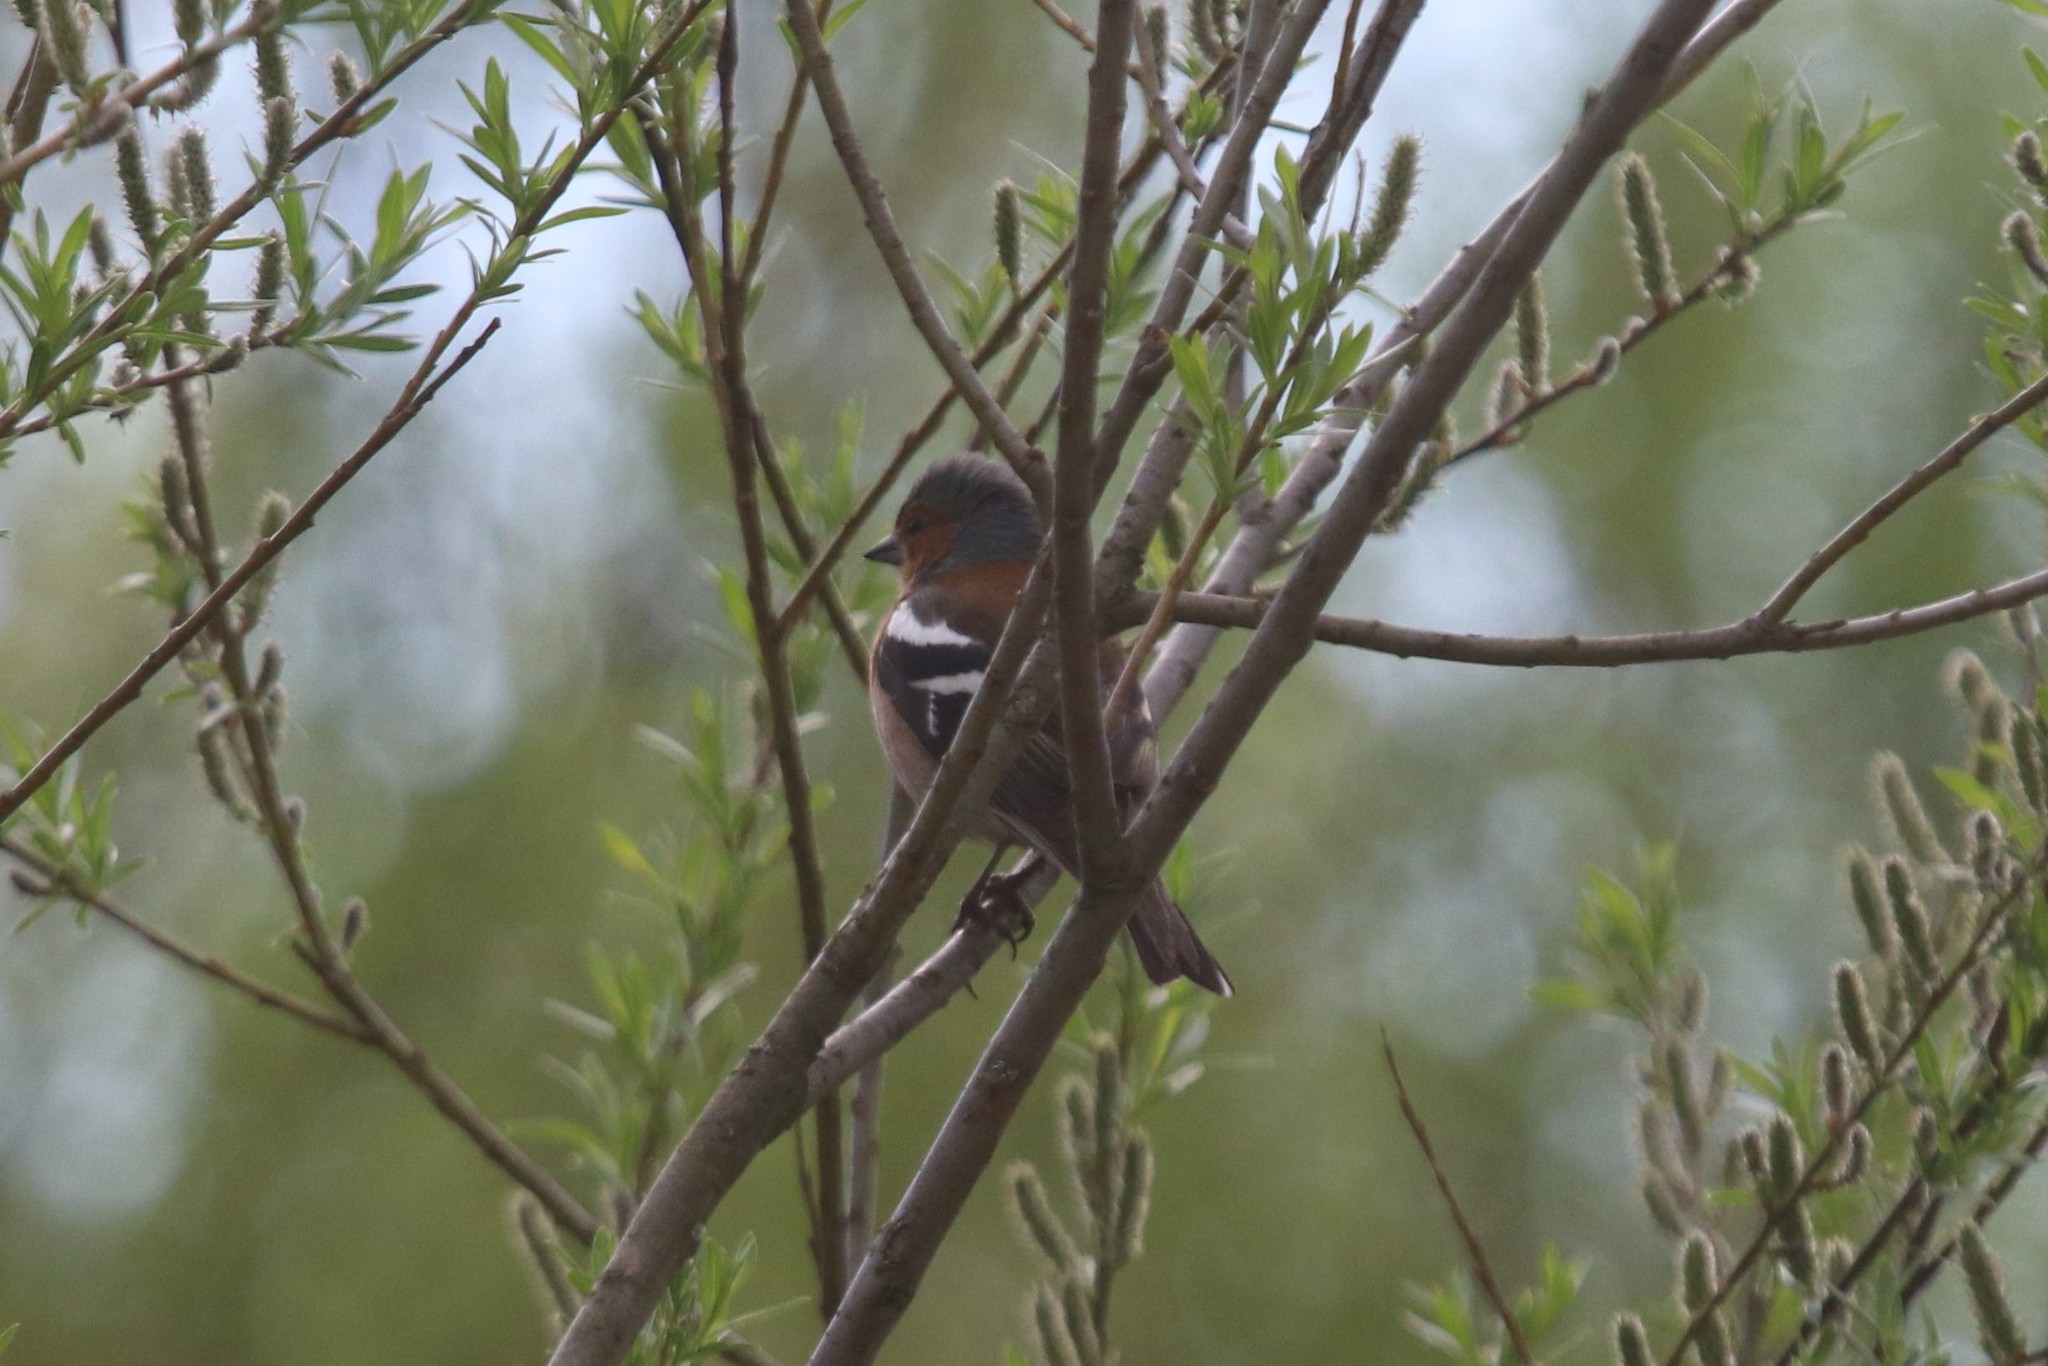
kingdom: Animalia
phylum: Chordata
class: Aves
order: Passeriformes
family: Fringillidae
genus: Fringilla
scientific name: Fringilla coelebs
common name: Common chaffinch
